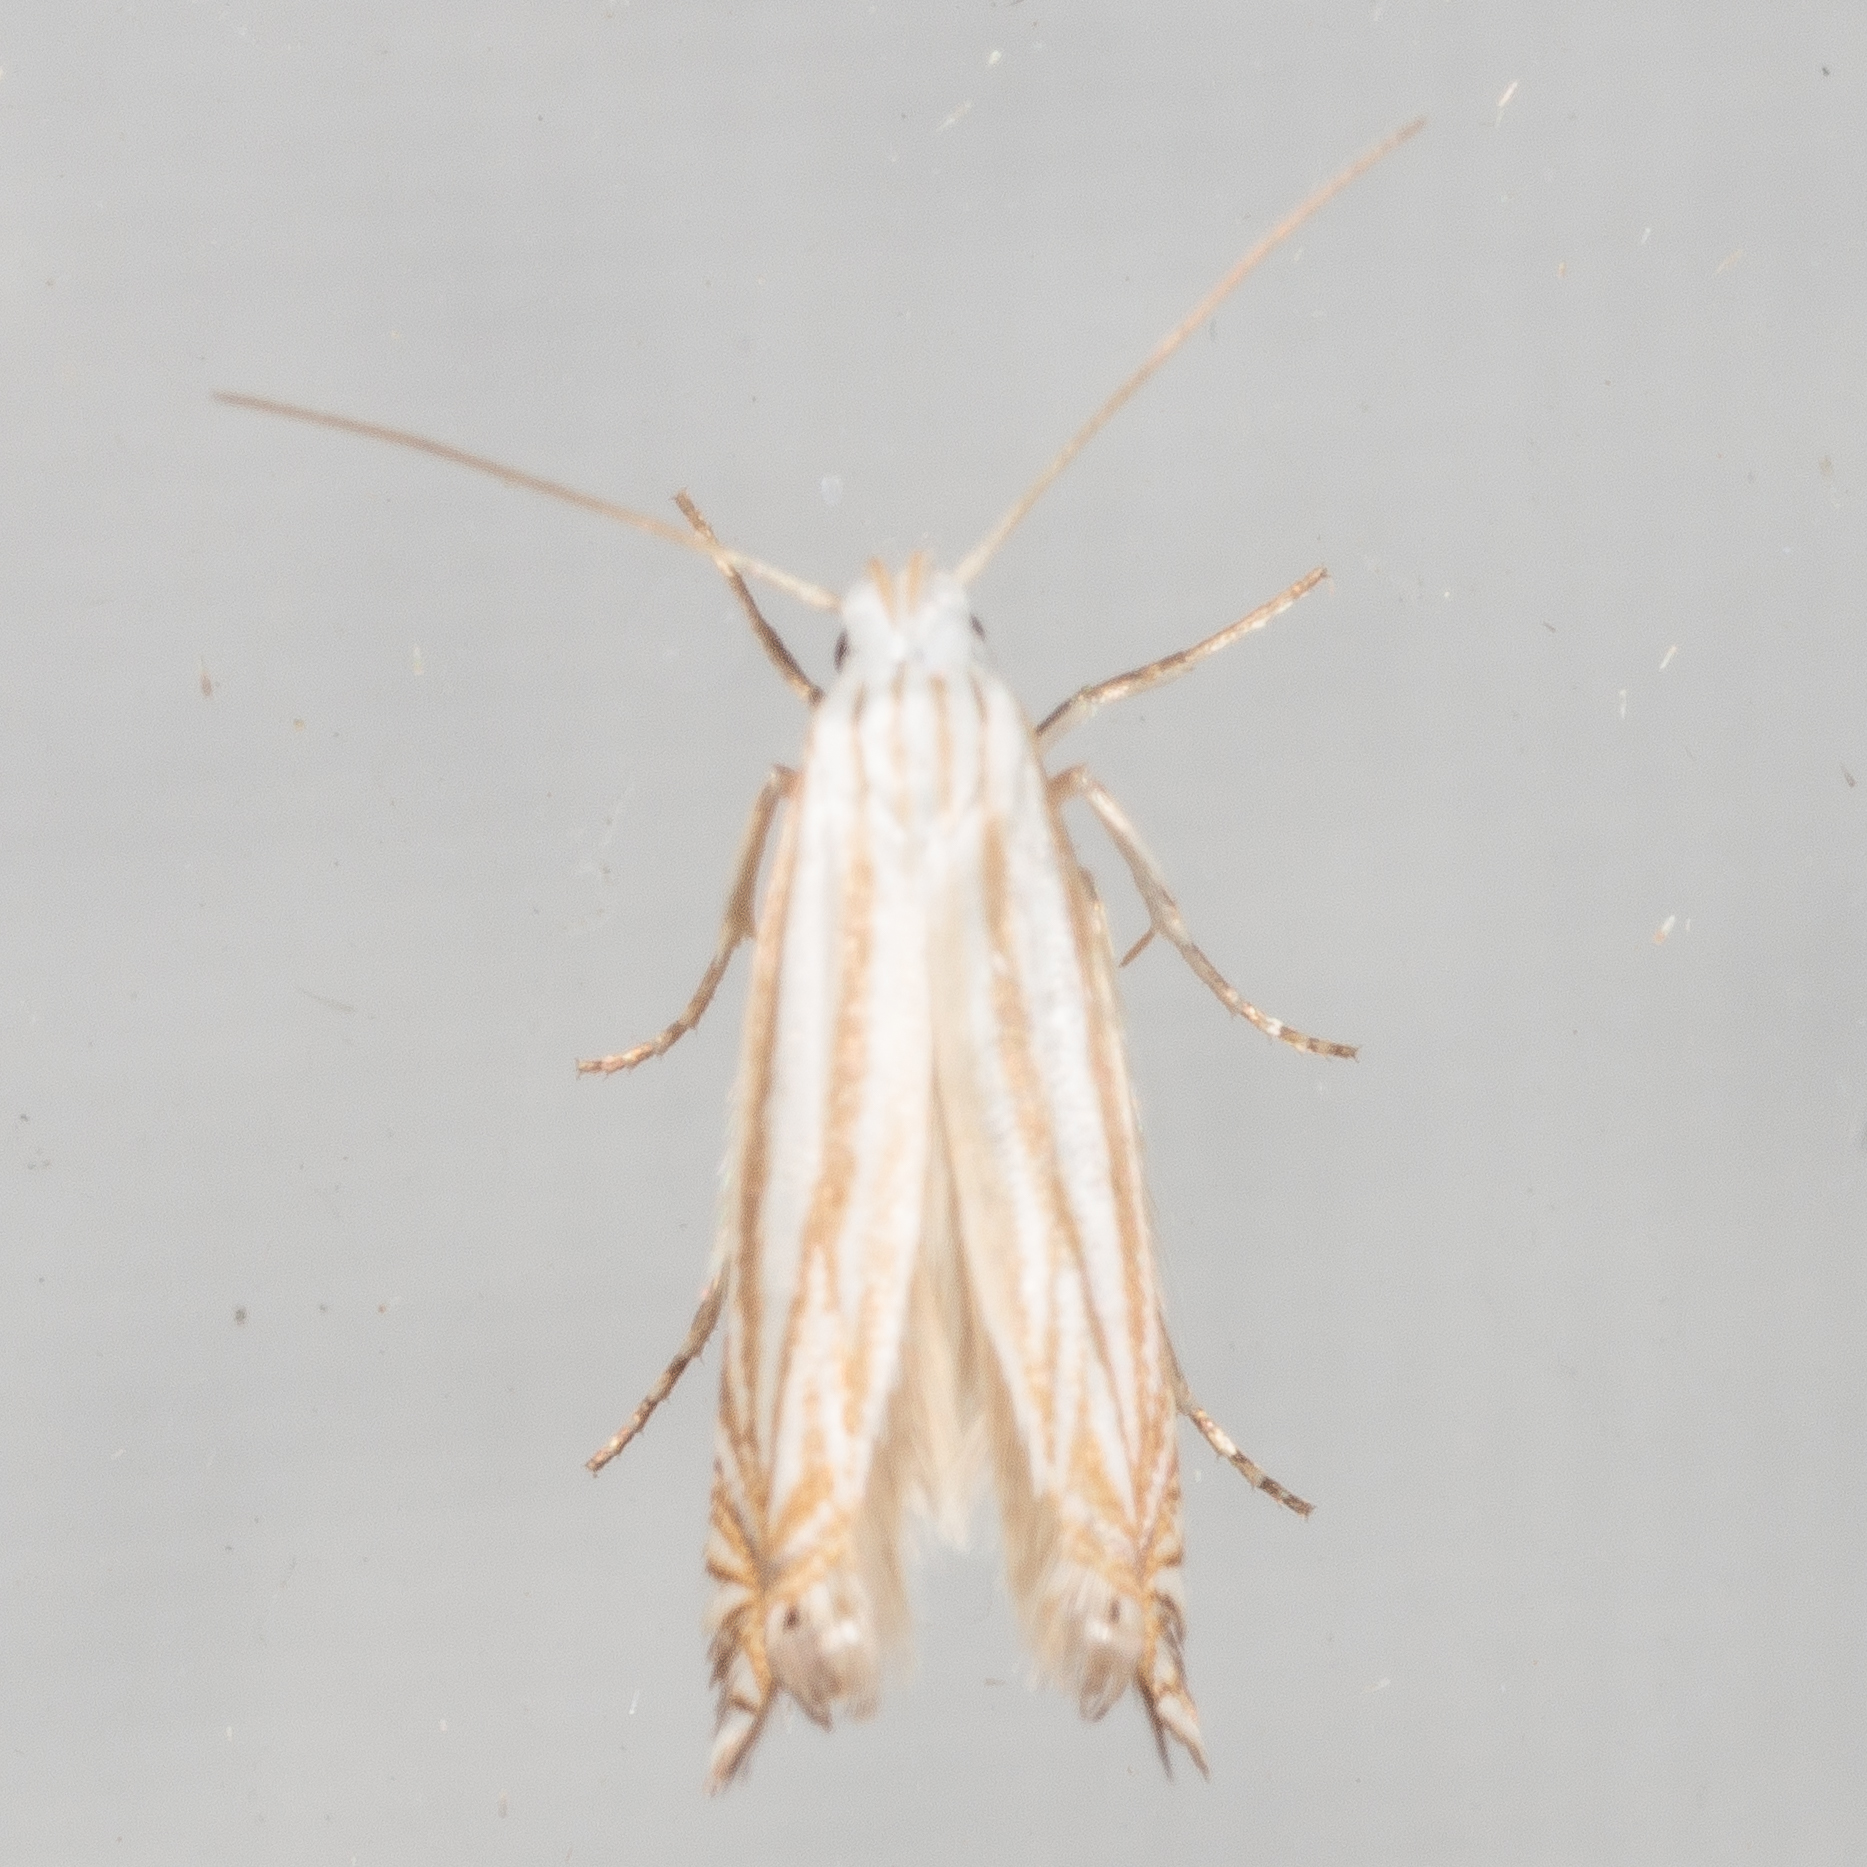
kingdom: Animalia
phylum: Arthropoda
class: Insecta
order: Lepidoptera
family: Gelechiidae
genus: Polyhymno
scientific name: Polyhymno luteostrigella
